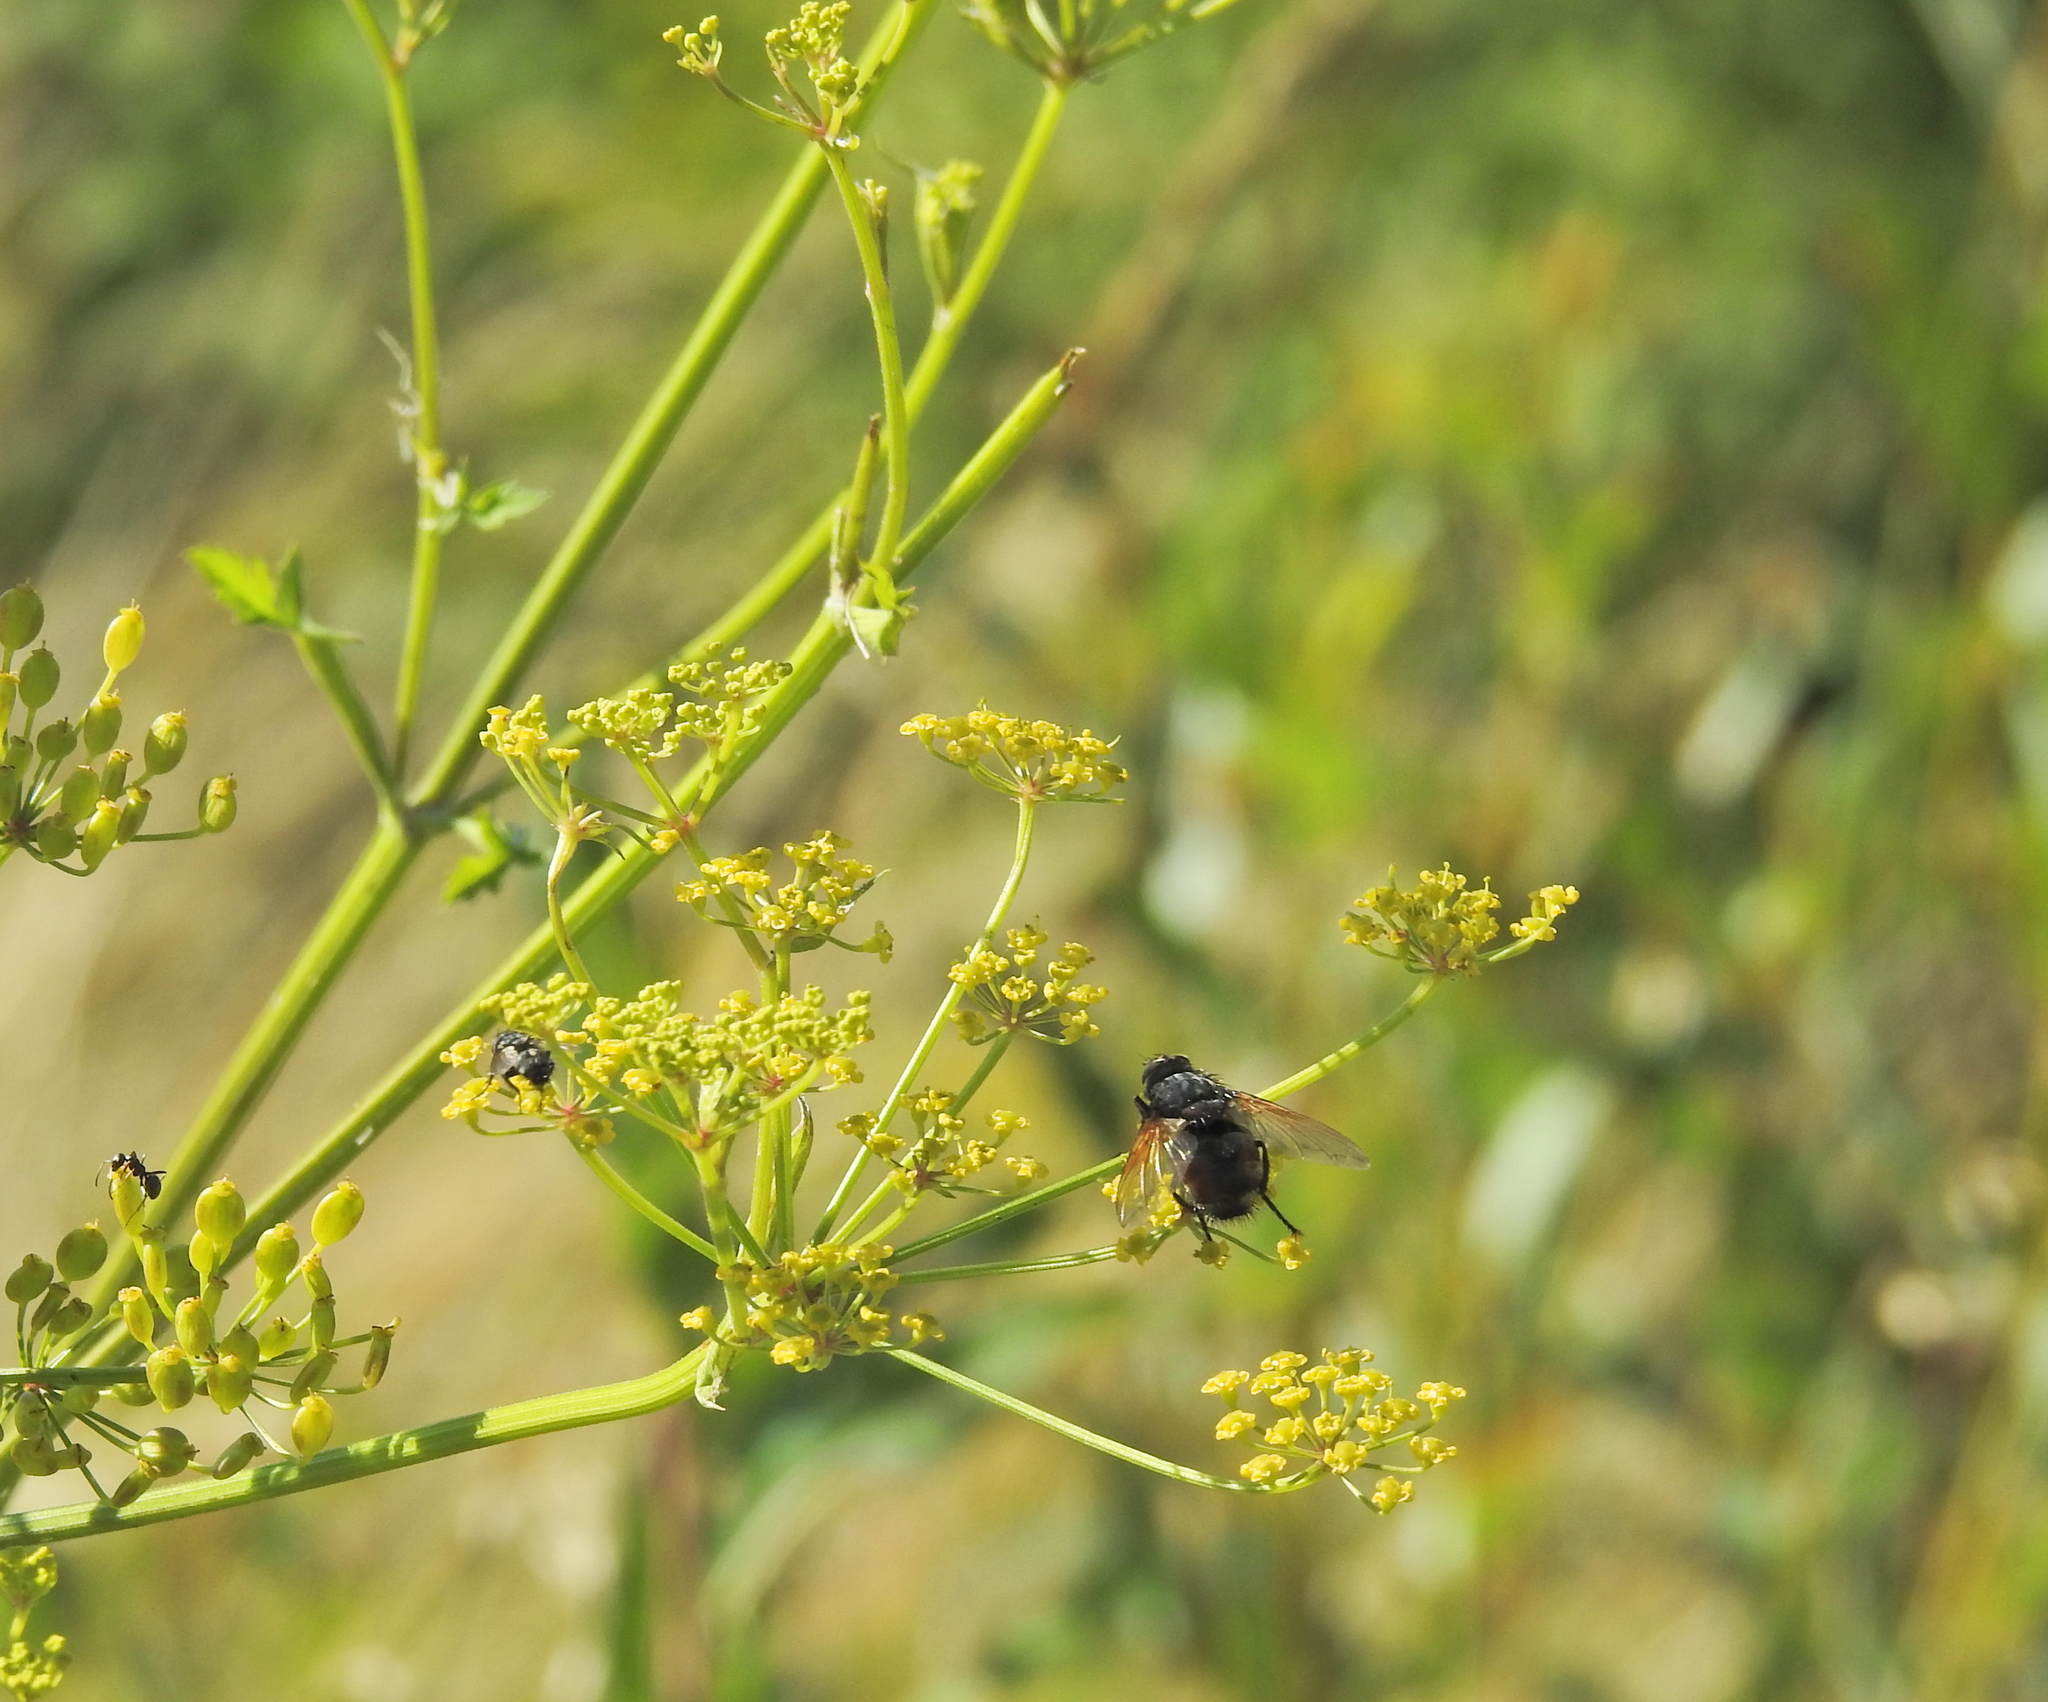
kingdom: Animalia
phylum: Arthropoda
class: Insecta
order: Diptera
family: Tachinidae
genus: Nemoraea
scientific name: Nemoraea pellucida
